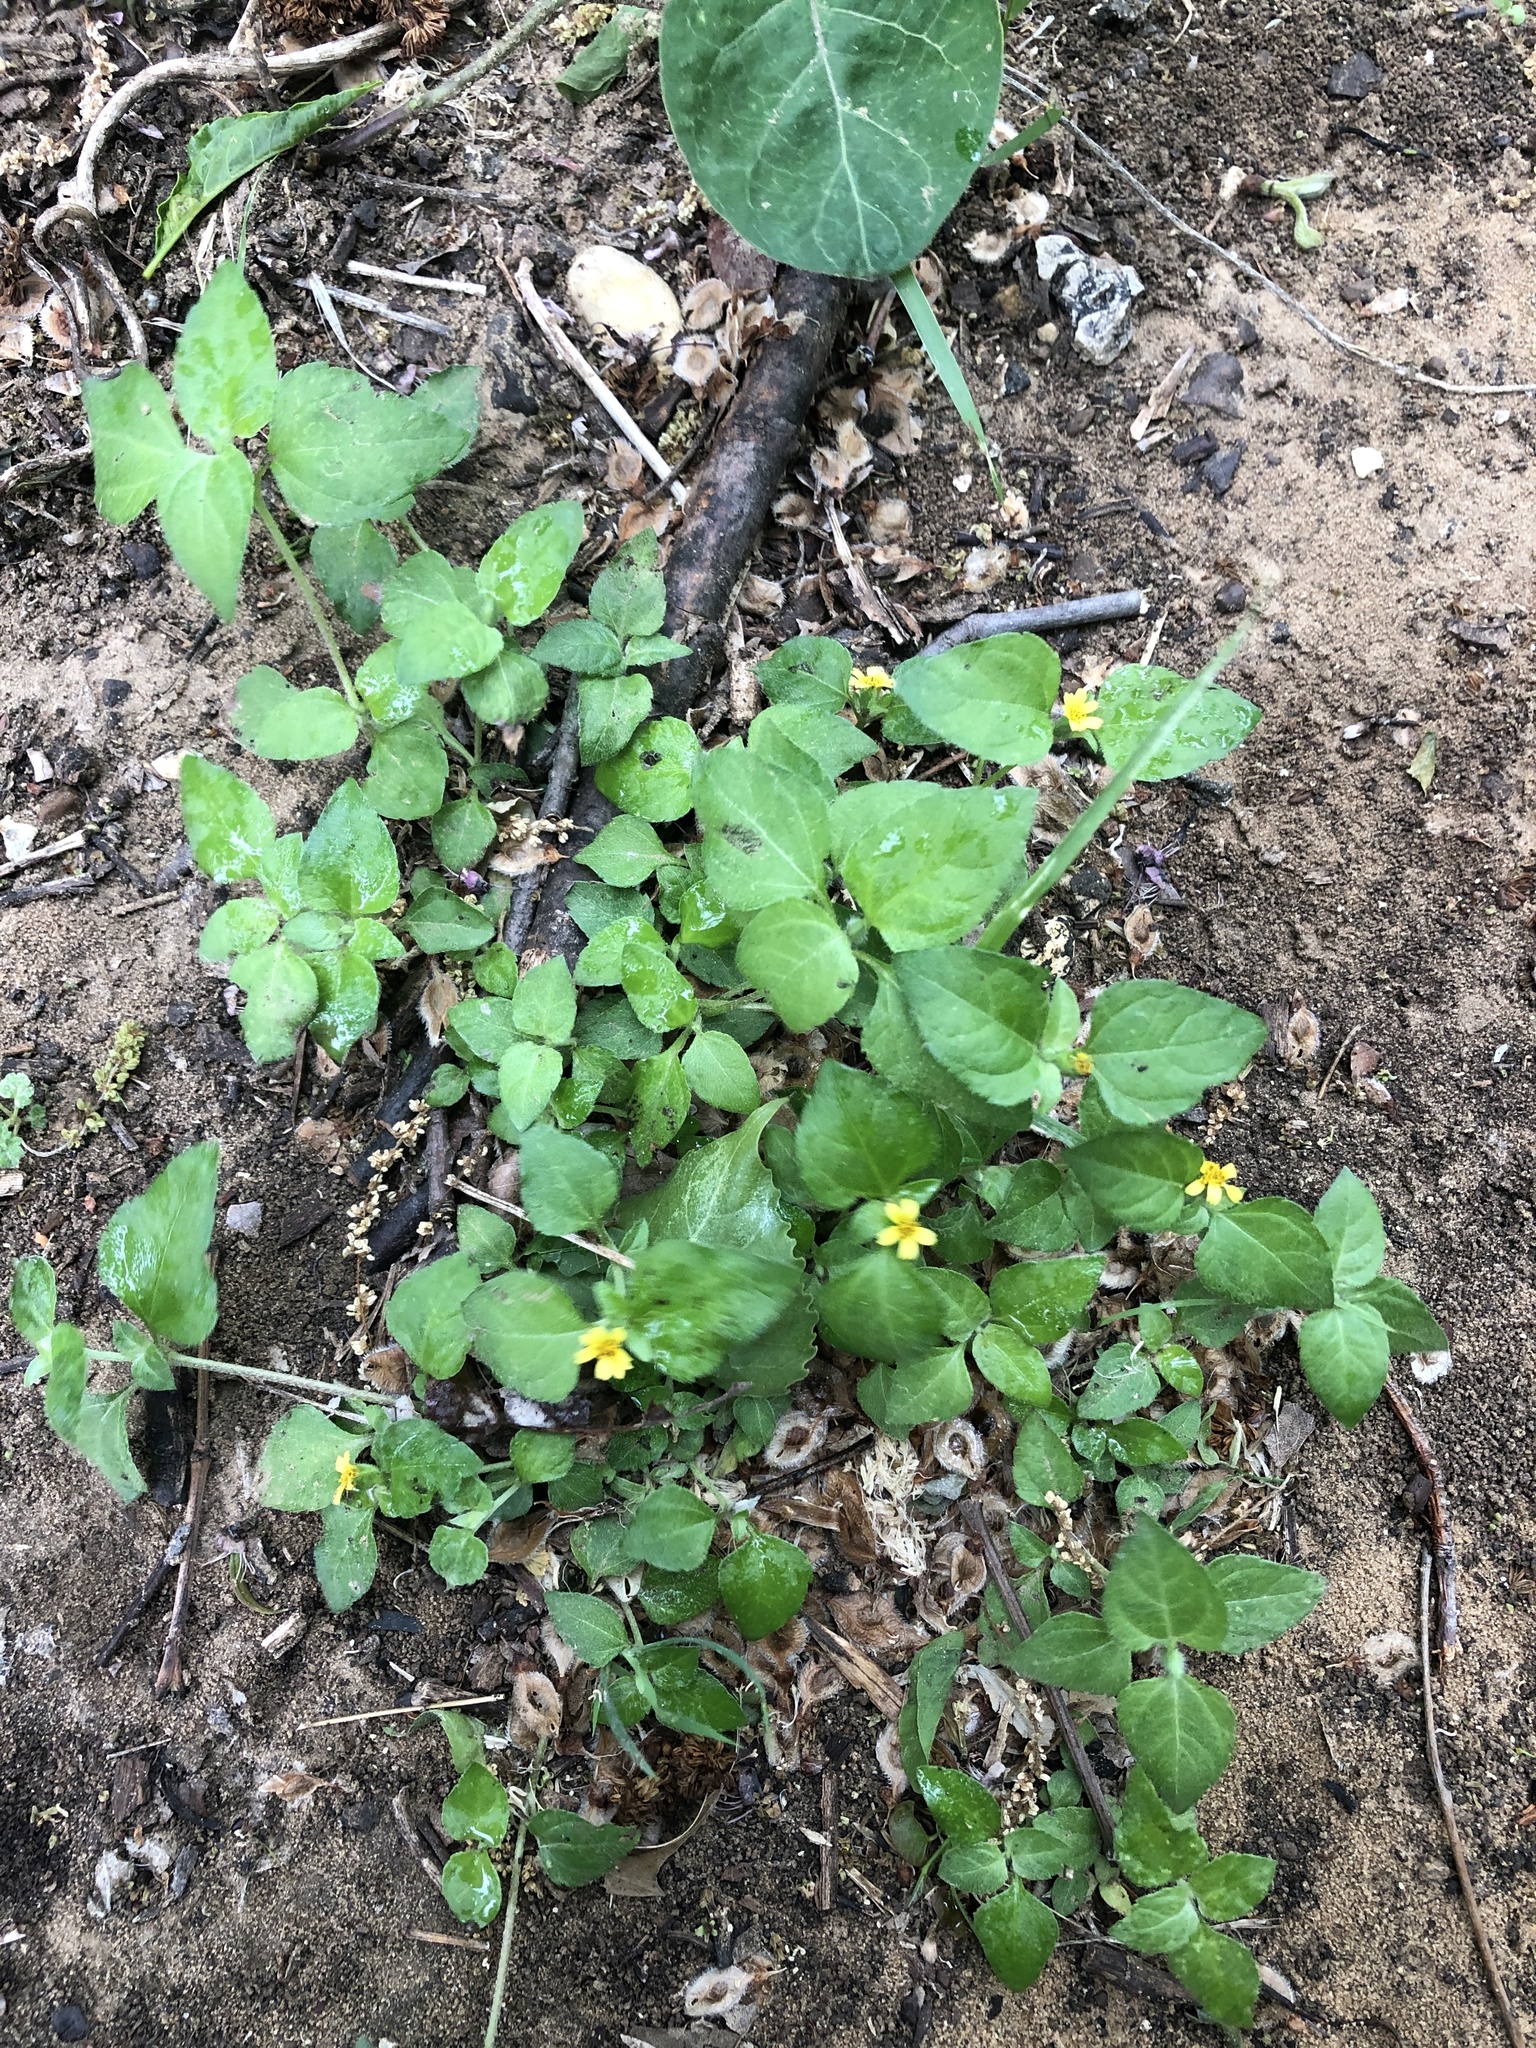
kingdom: Plantae
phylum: Tracheophyta
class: Magnoliopsida
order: Asterales
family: Asteraceae
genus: Calyptocarpus
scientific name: Calyptocarpus vialis
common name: Straggler daisy
